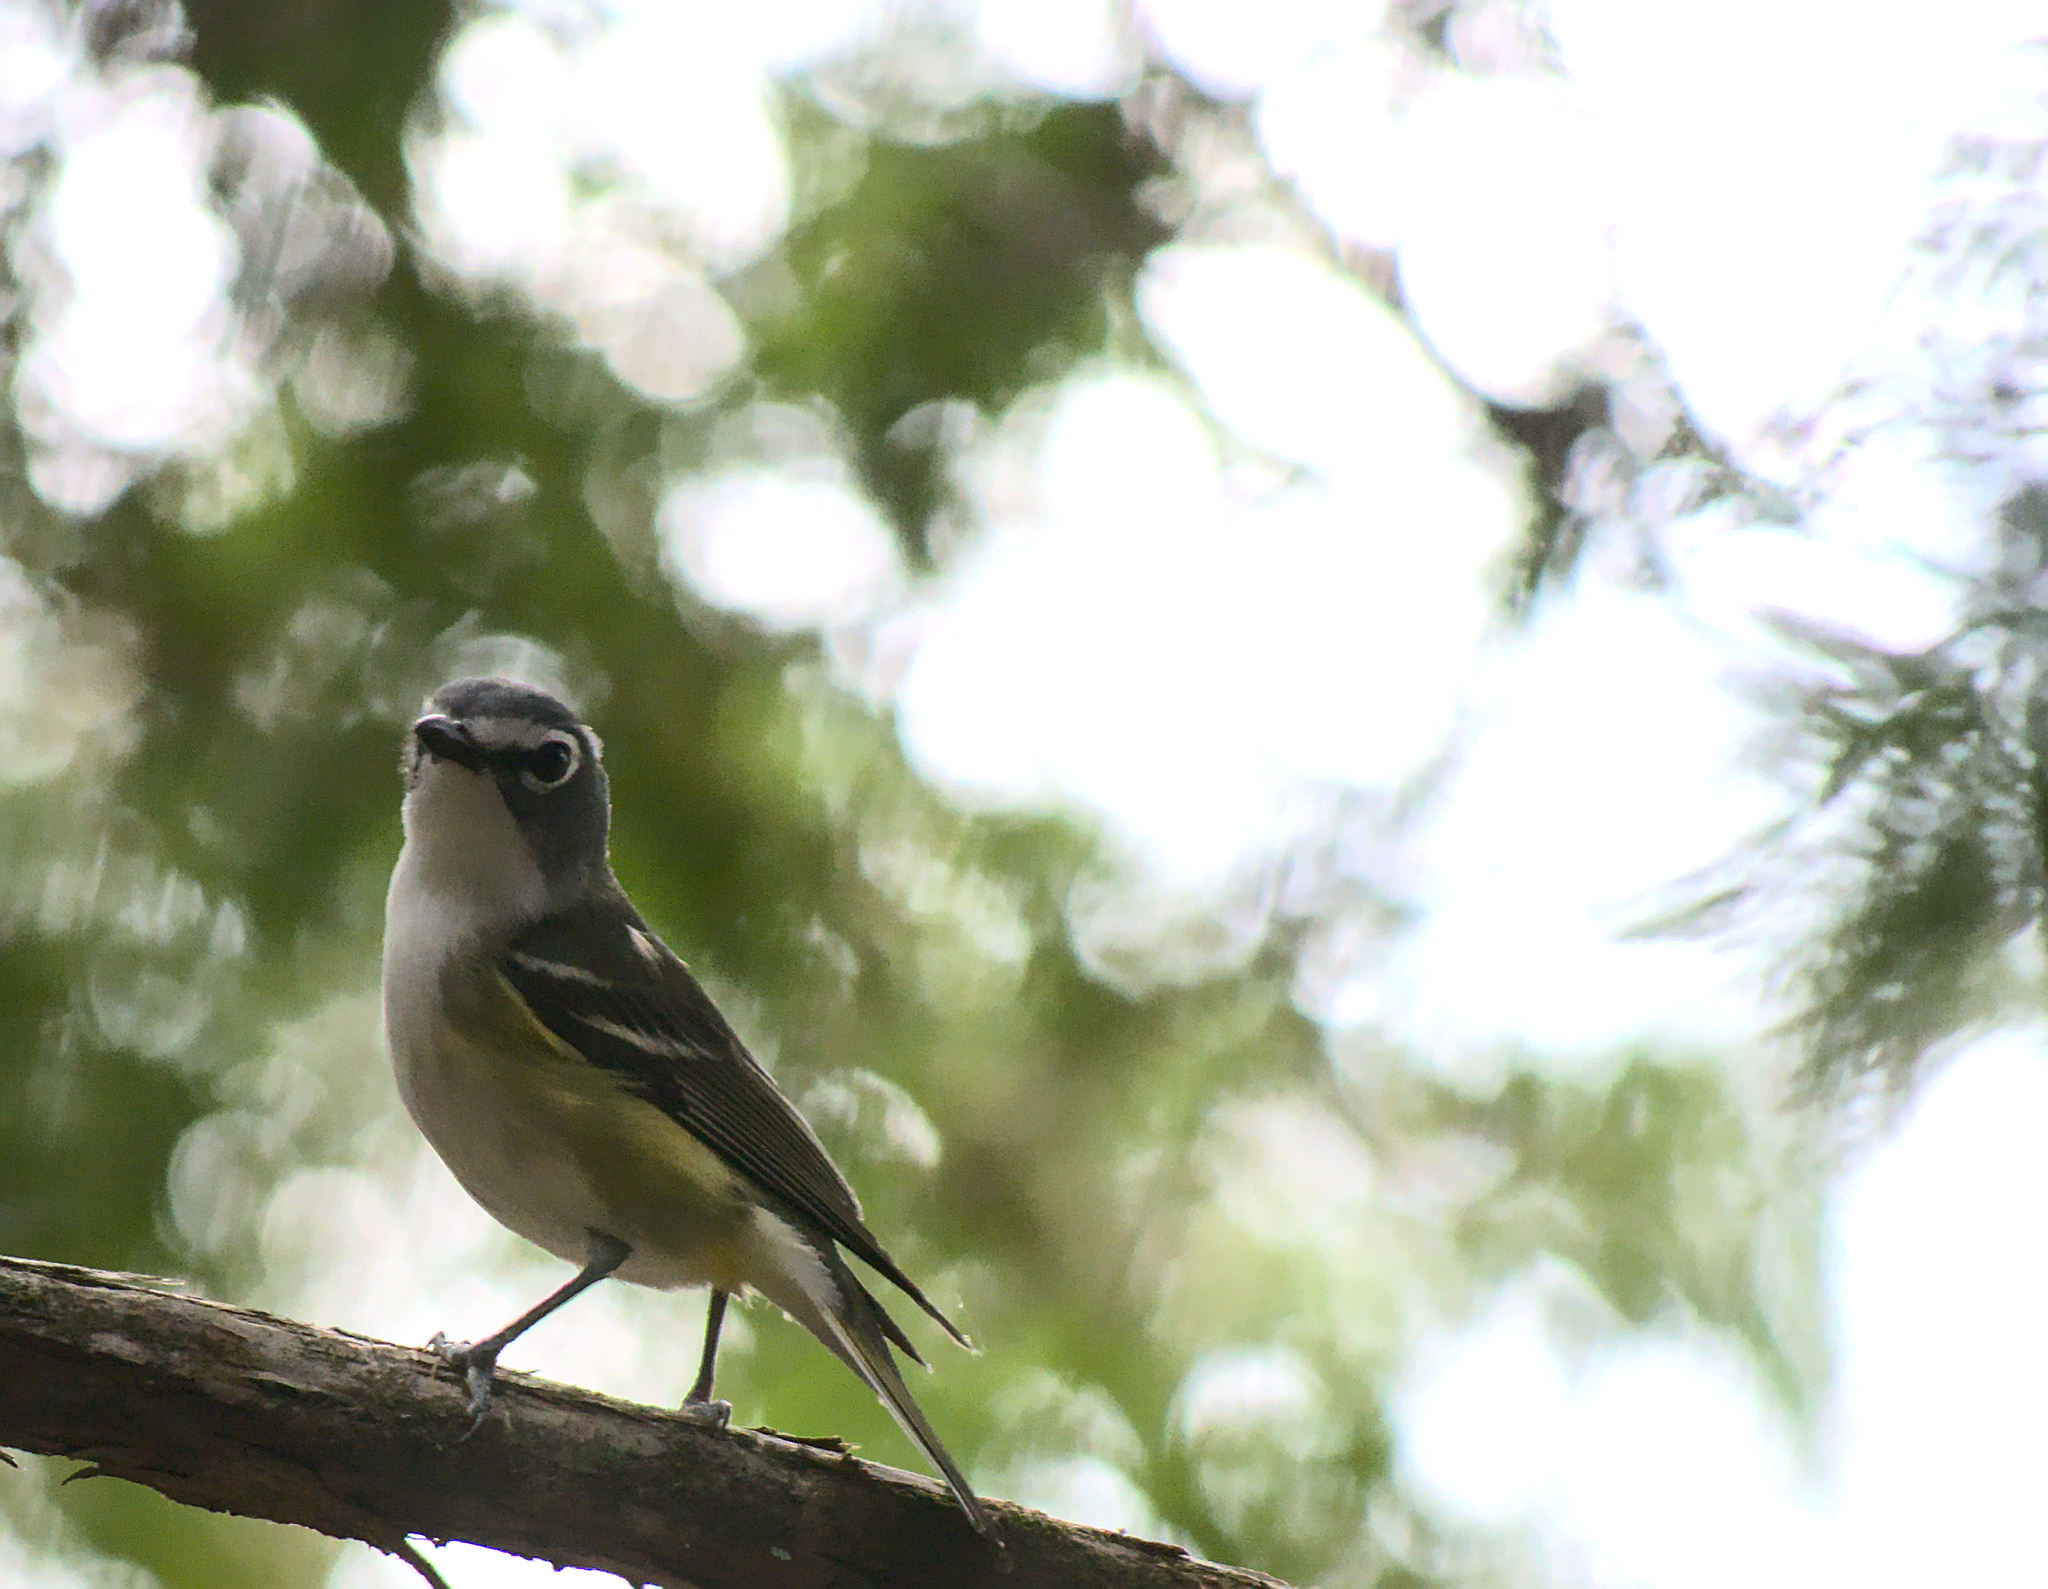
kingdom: Animalia
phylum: Chordata
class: Aves
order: Passeriformes
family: Vireonidae
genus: Vireo
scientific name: Vireo solitarius
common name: Blue-headed vireo
